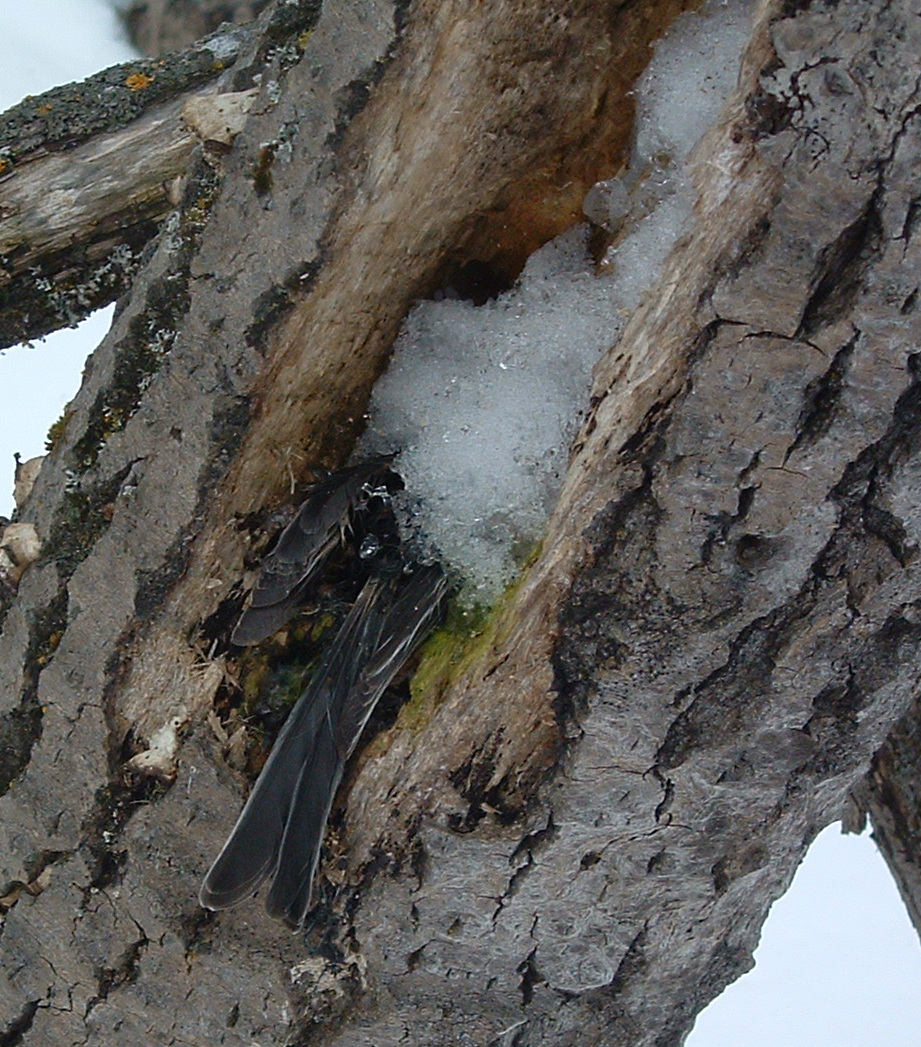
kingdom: Animalia
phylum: Chordata
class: Aves
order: Passeriformes
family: Paridae
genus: Poecile
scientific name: Poecile atricapillus
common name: Black-capped chickadee
